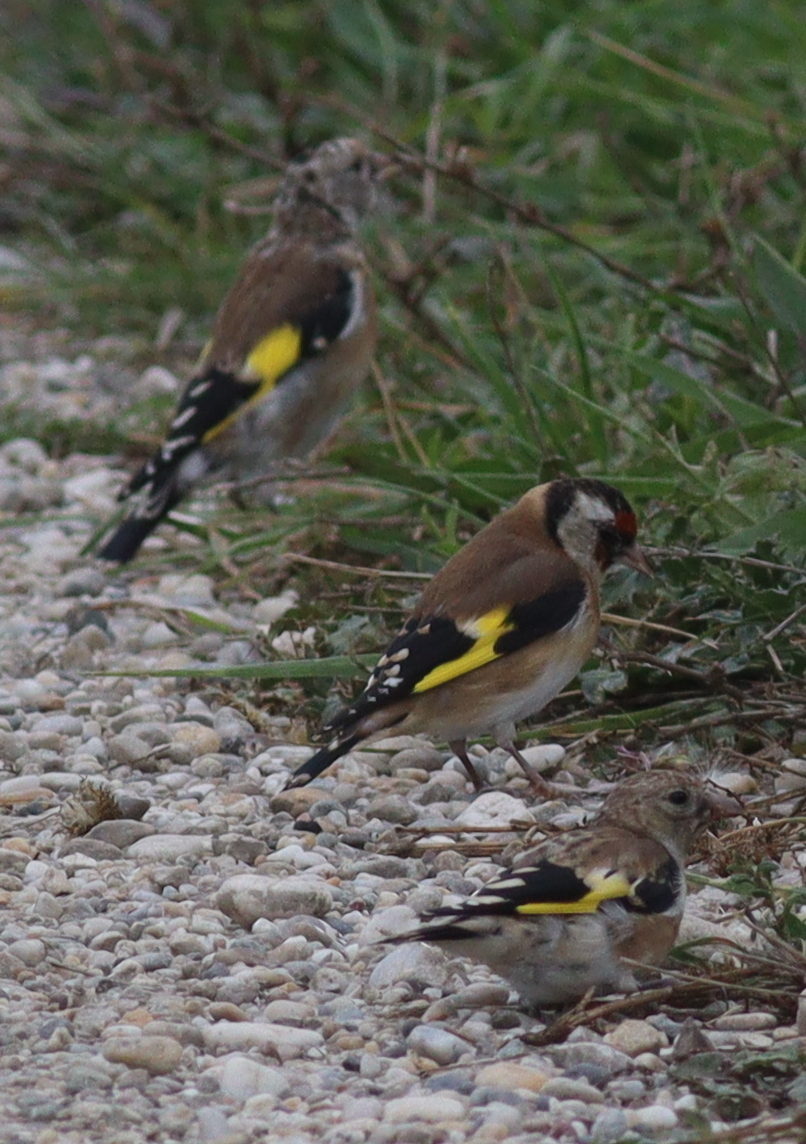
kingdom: Animalia
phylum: Chordata
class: Aves
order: Passeriformes
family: Fringillidae
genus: Carduelis
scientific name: Carduelis carduelis
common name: European goldfinch
